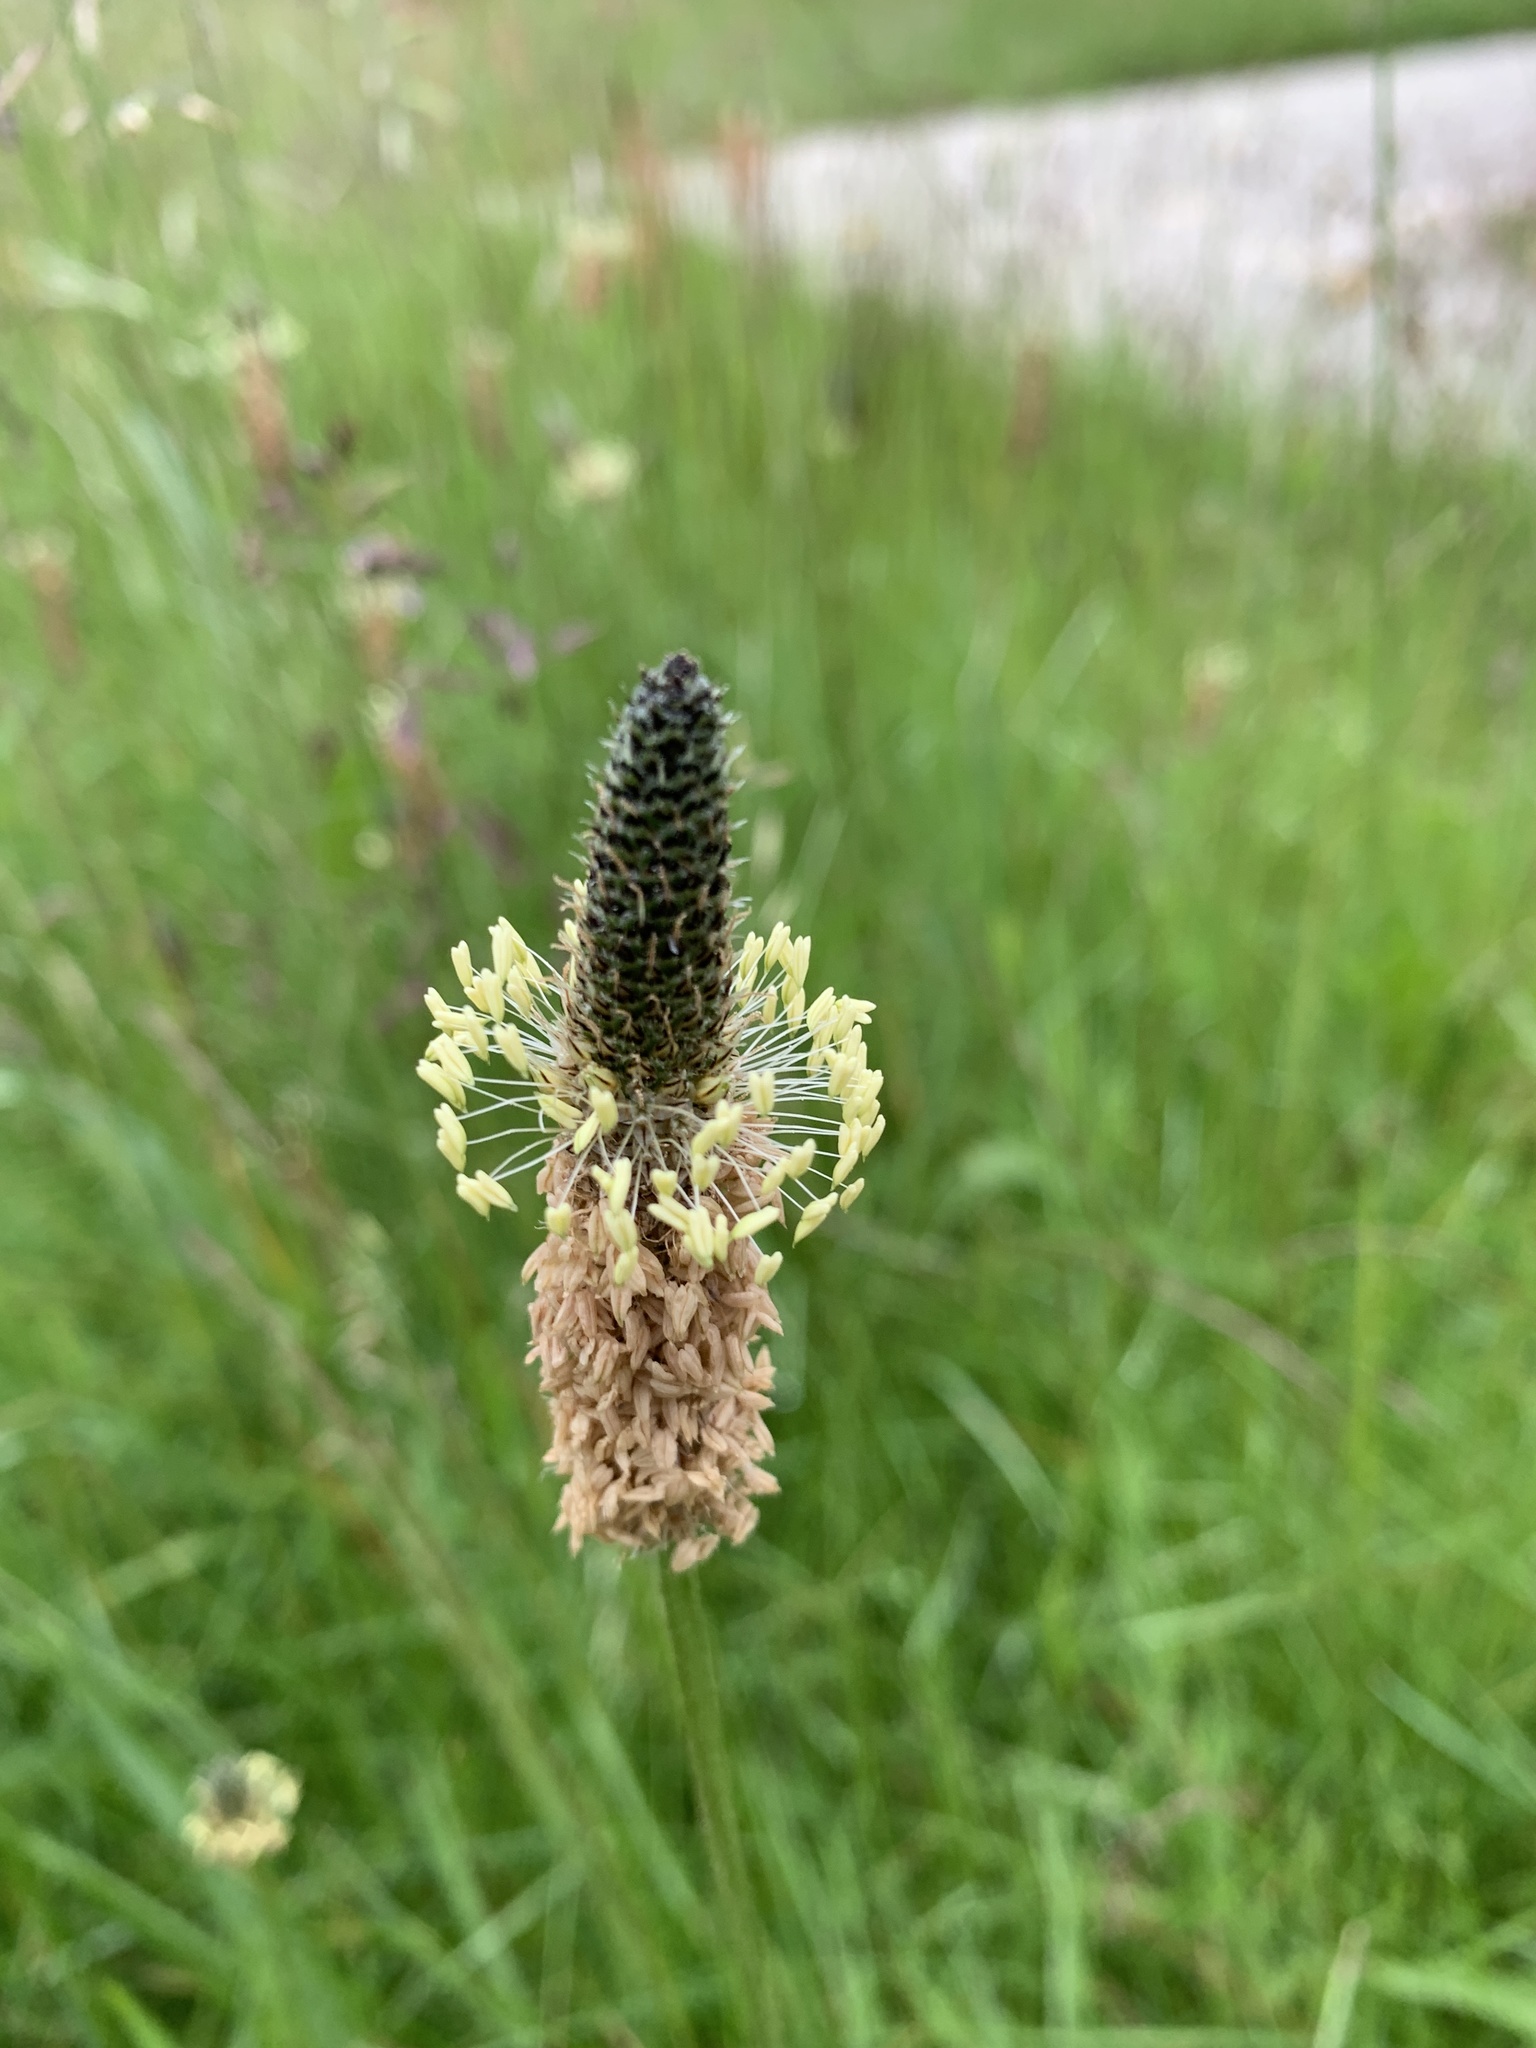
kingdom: Plantae
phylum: Tracheophyta
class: Magnoliopsida
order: Lamiales
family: Plantaginaceae
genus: Plantago
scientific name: Plantago lanceolata
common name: Ribwort plantain
